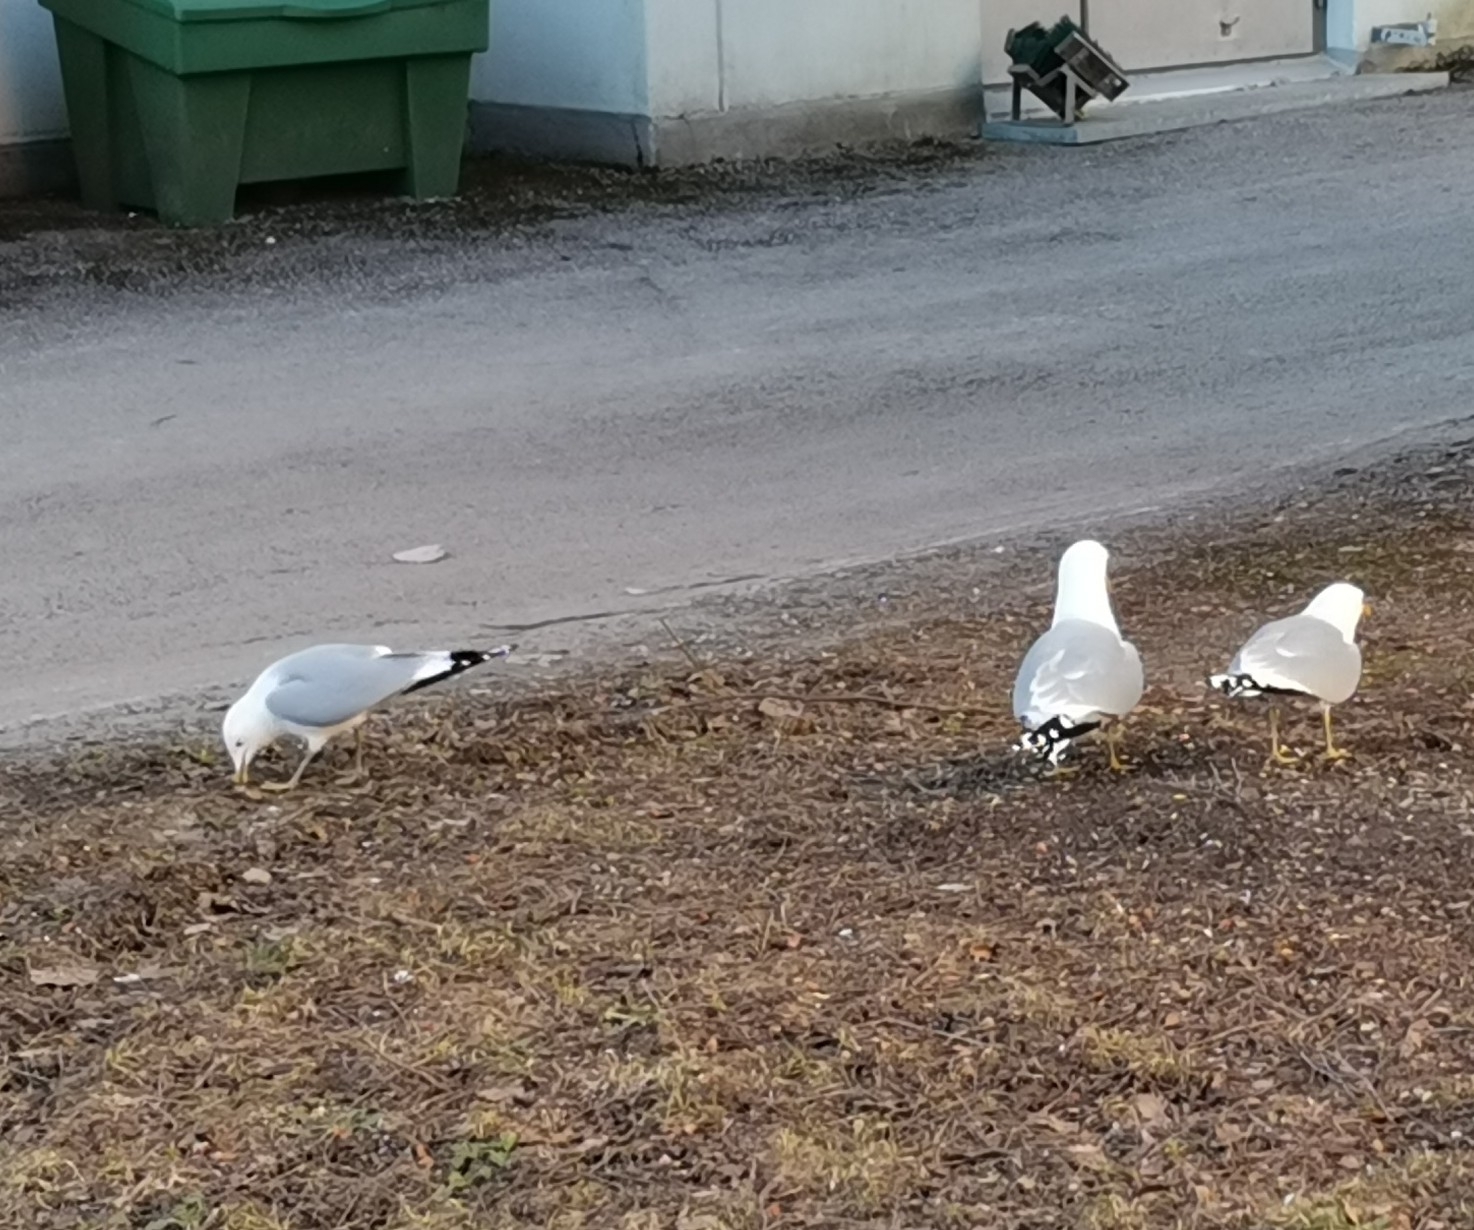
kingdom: Animalia
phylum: Chordata
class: Aves
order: Charadriiformes
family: Laridae
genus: Larus
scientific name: Larus canus
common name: Mew gull
